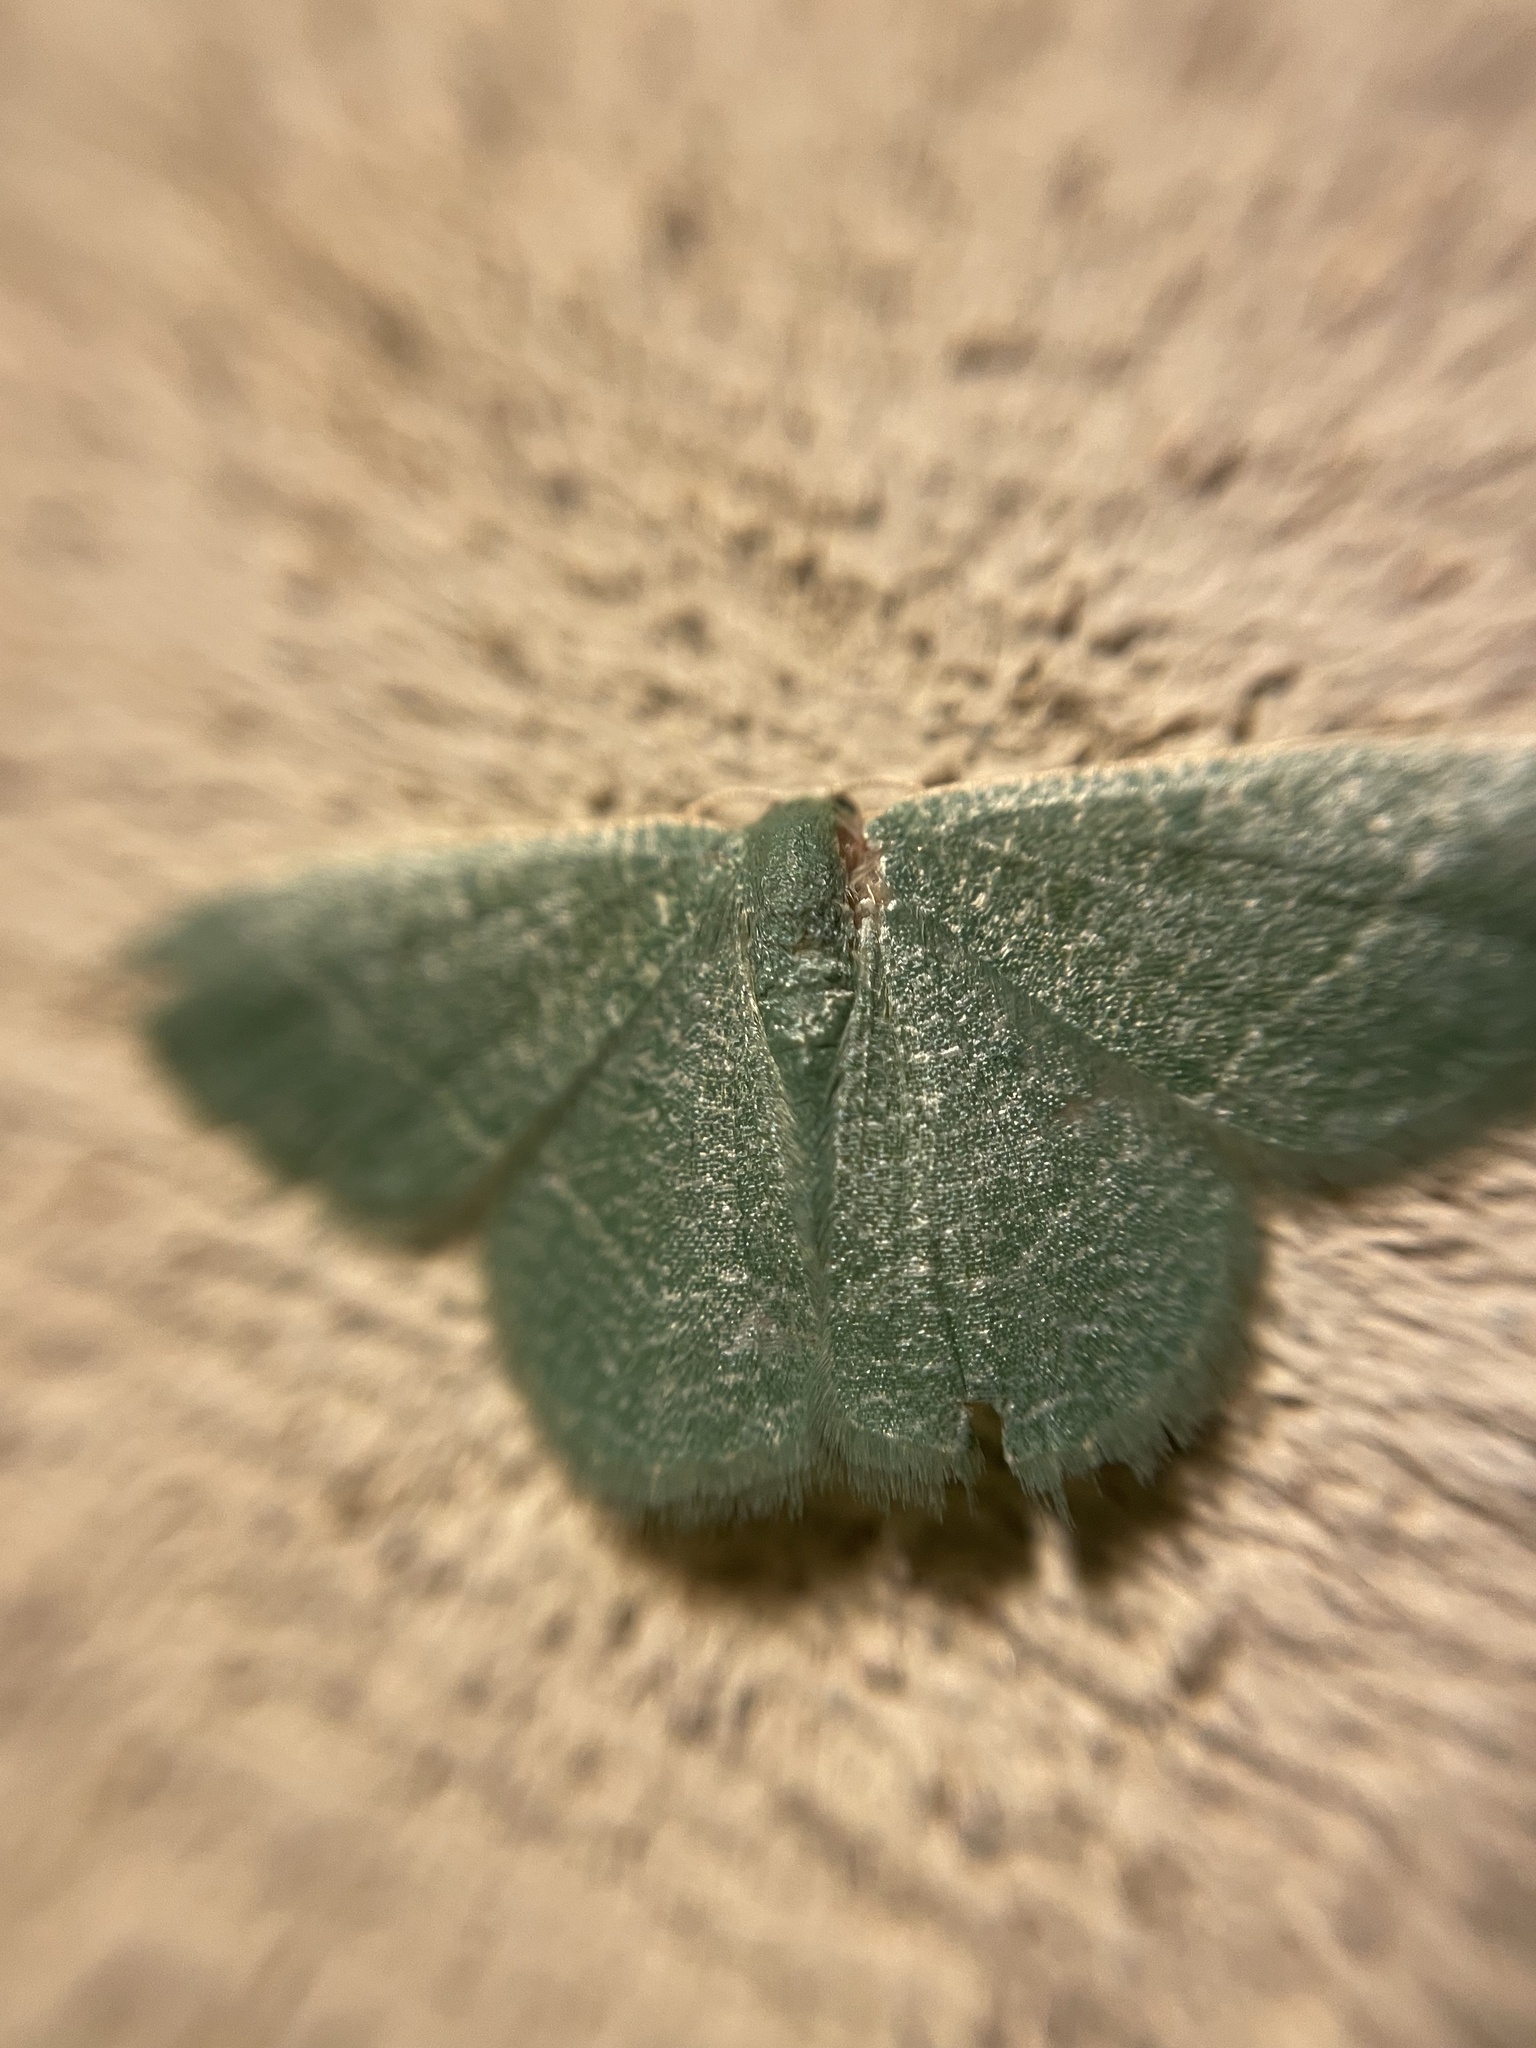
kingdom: Animalia
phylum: Arthropoda
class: Insecta
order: Lepidoptera
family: Geometridae
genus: Chlorissa
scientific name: Chlorissa etruscaria
